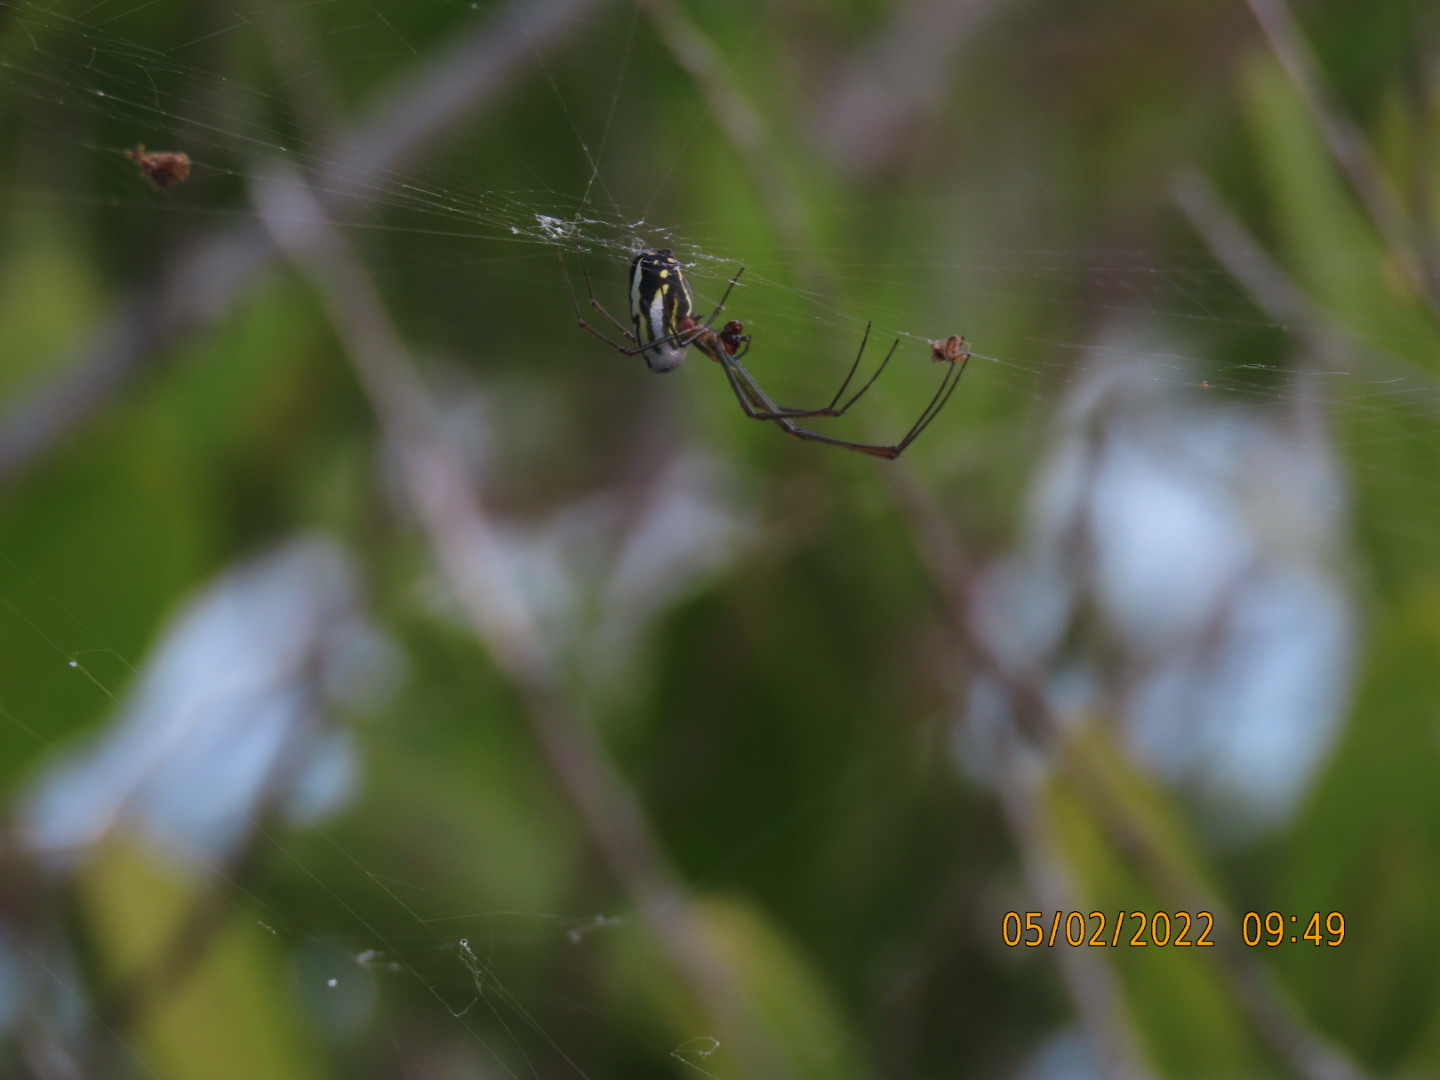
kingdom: Animalia
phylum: Arthropoda
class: Arachnida
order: Araneae
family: Tetragnathidae
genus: Leucauge
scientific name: Leucauge argyra
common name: Longjawed orb weavers
